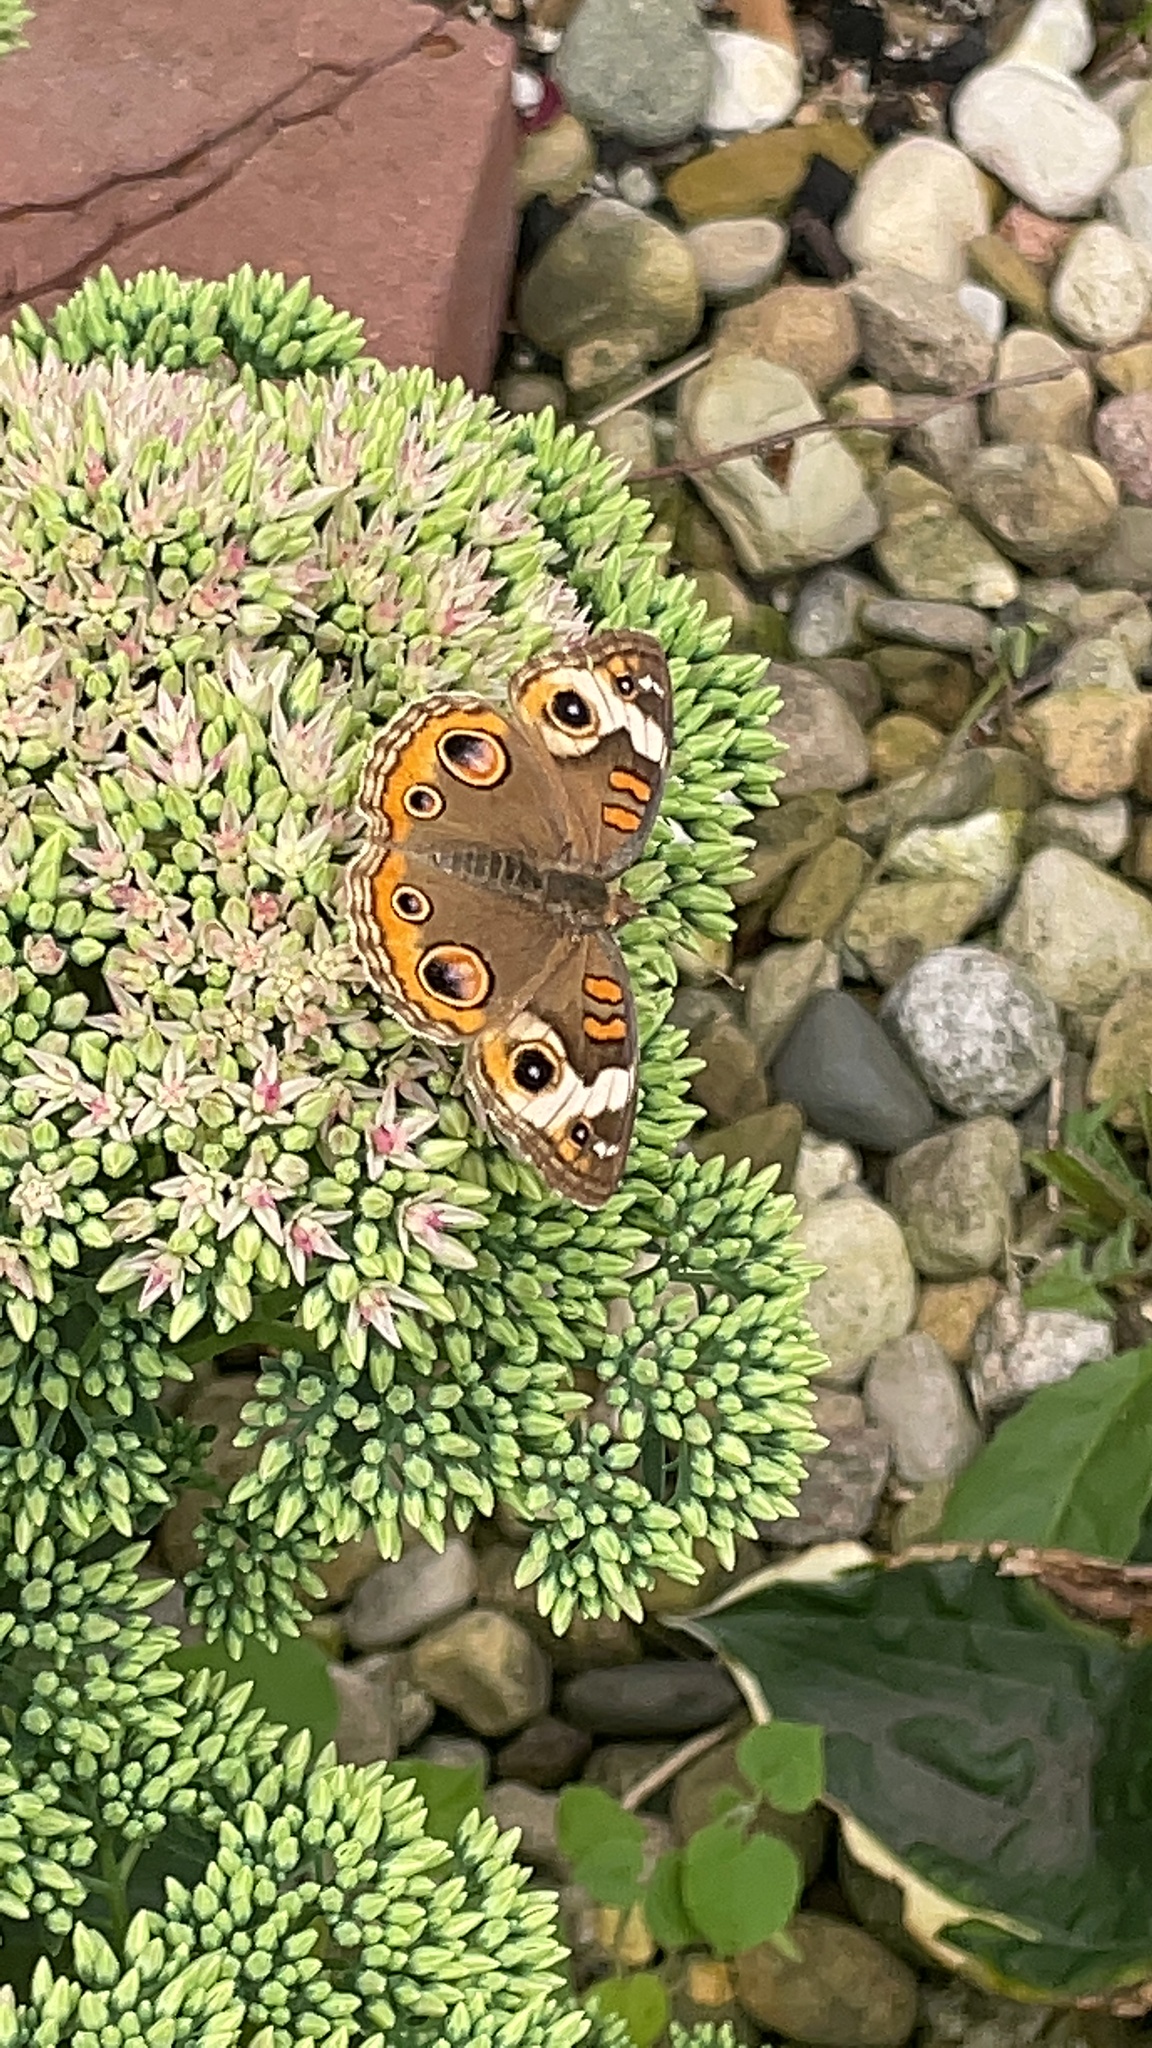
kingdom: Animalia
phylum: Arthropoda
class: Insecta
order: Lepidoptera
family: Nymphalidae
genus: Junonia
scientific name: Junonia coenia
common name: Common buckeye
